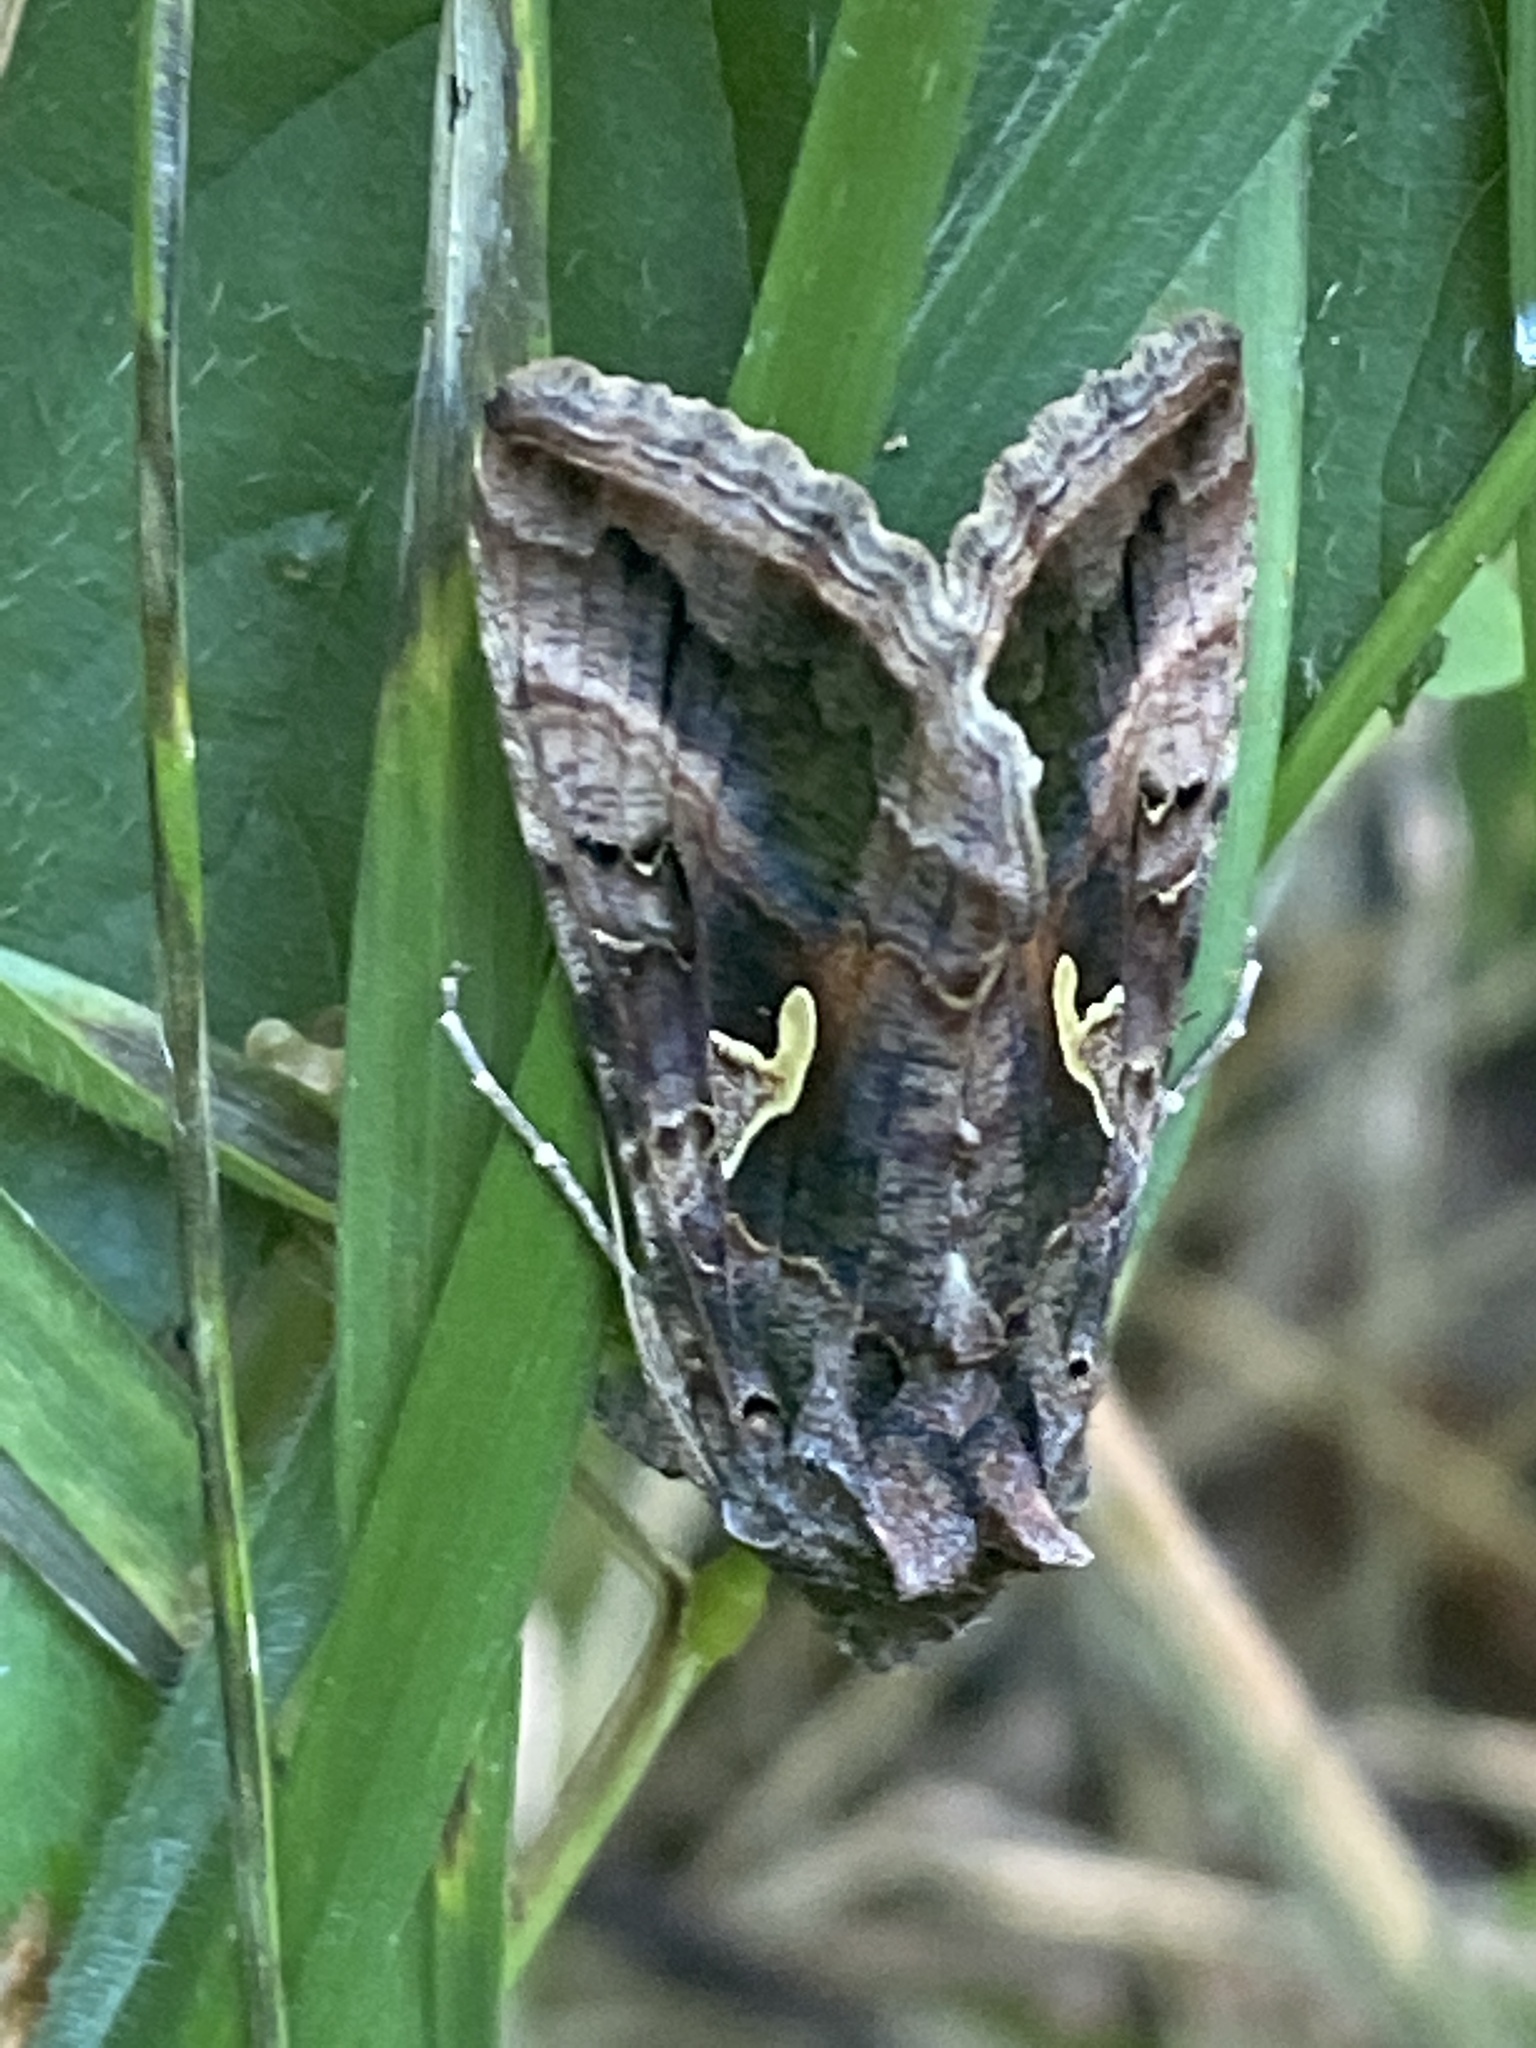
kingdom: Animalia
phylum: Arthropoda
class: Insecta
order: Lepidoptera
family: Noctuidae
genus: Autographa
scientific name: Autographa gamma
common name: Silver y
